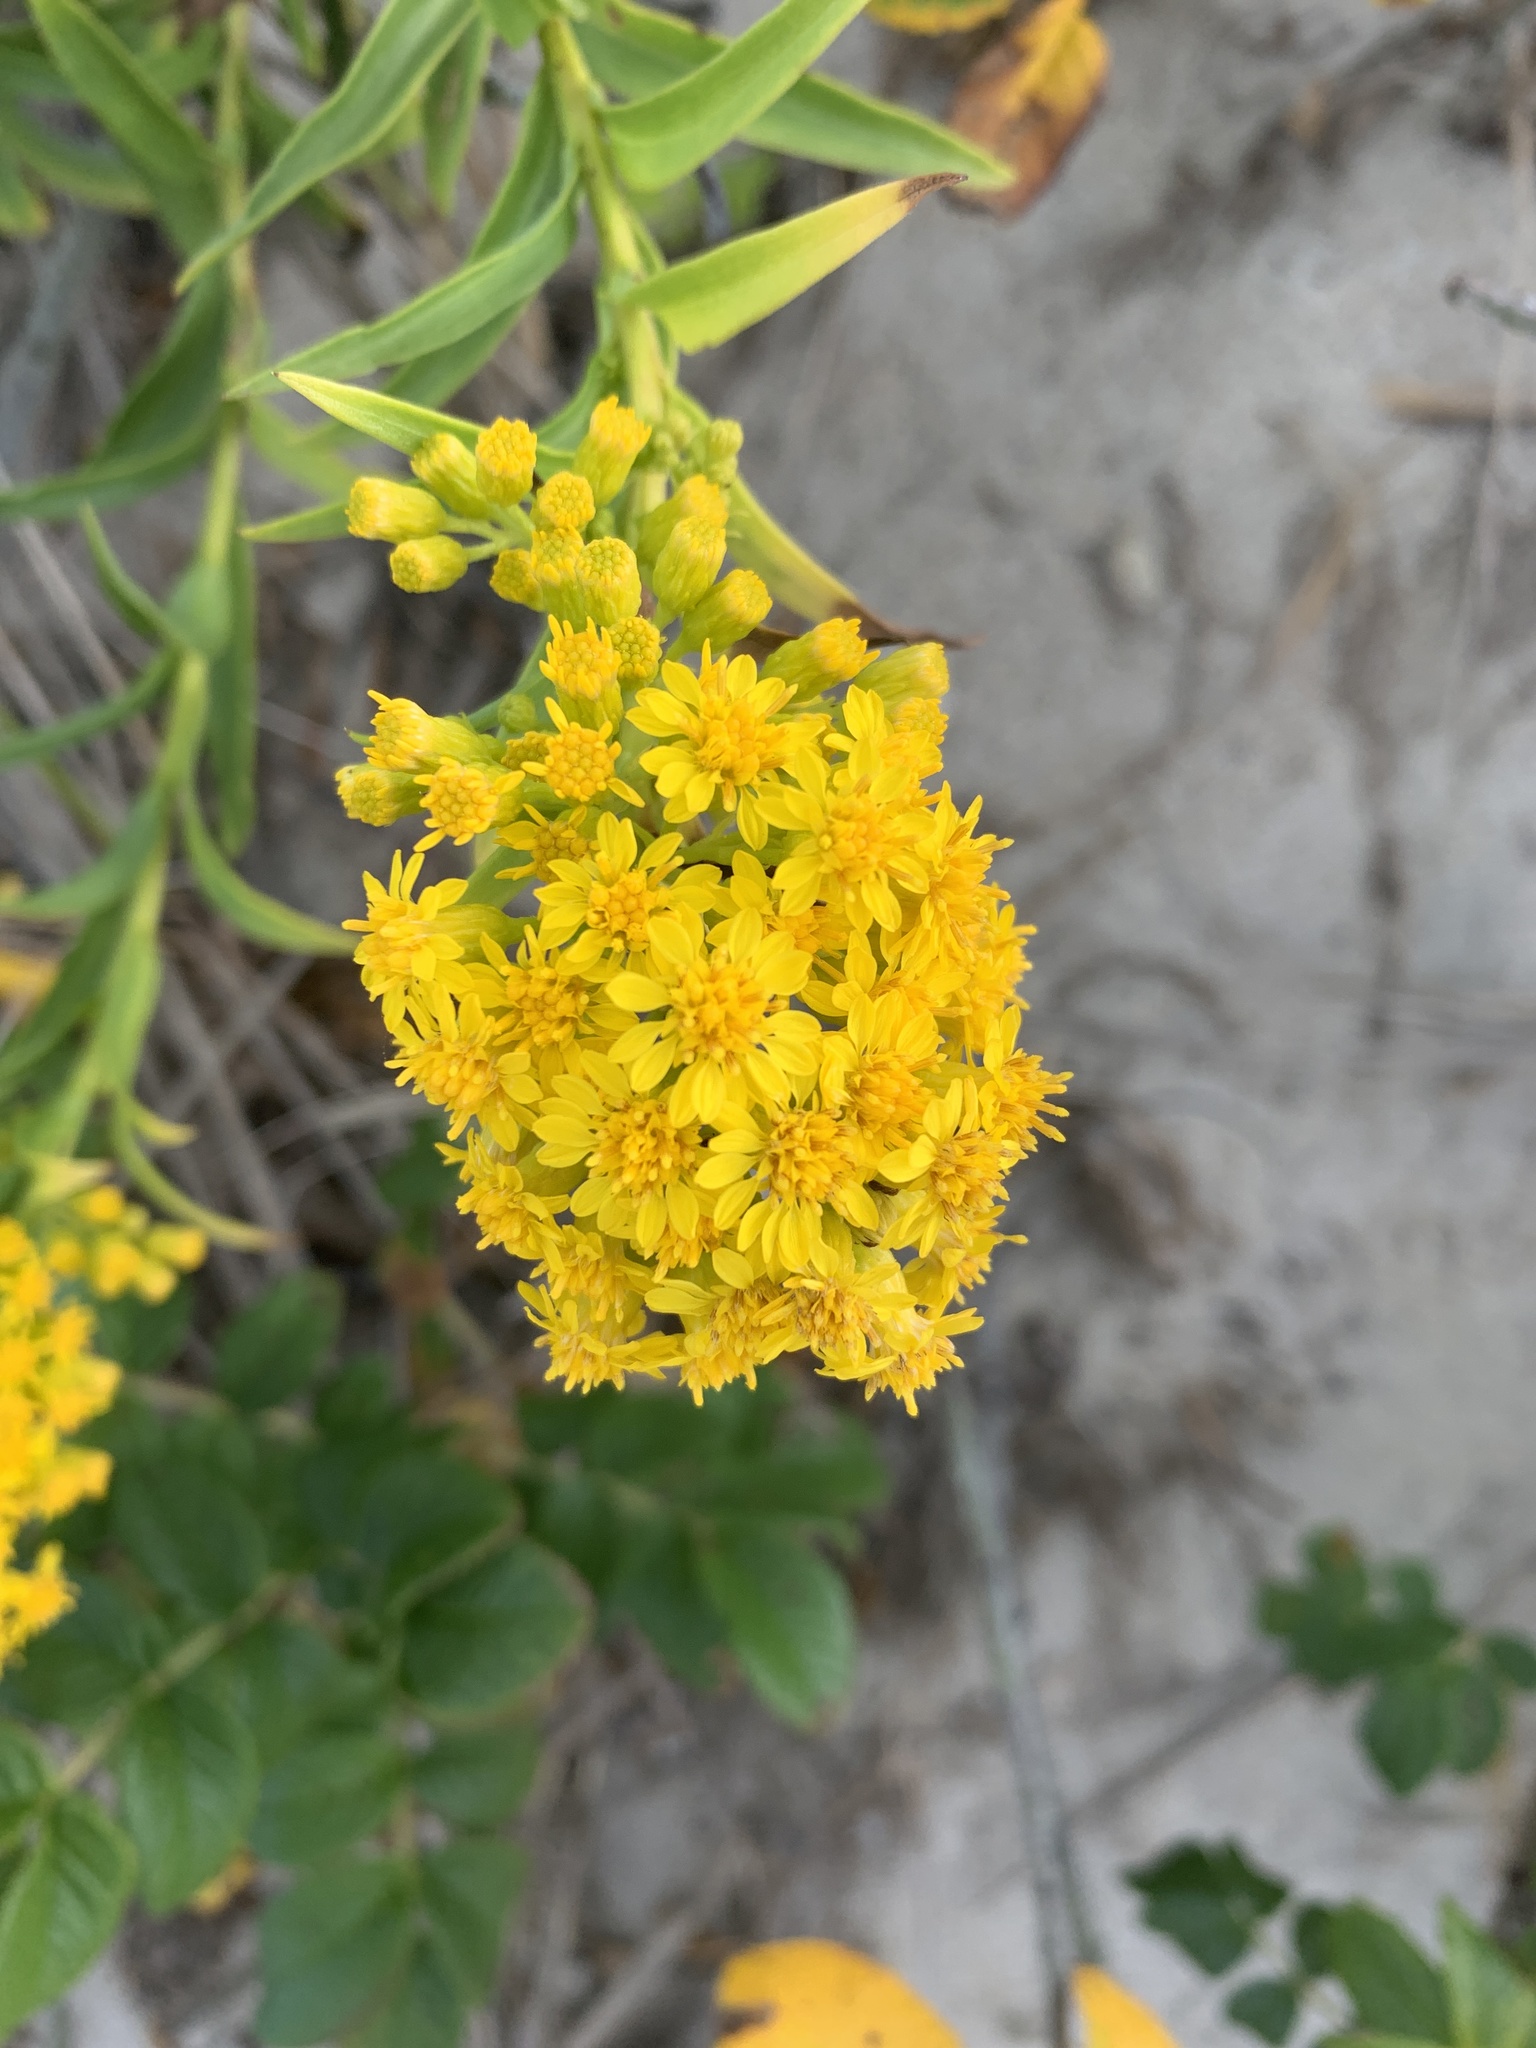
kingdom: Plantae
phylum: Tracheophyta
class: Magnoliopsida
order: Asterales
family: Asteraceae
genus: Solidago
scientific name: Solidago sempervirens
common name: Salt-marsh goldenrod
